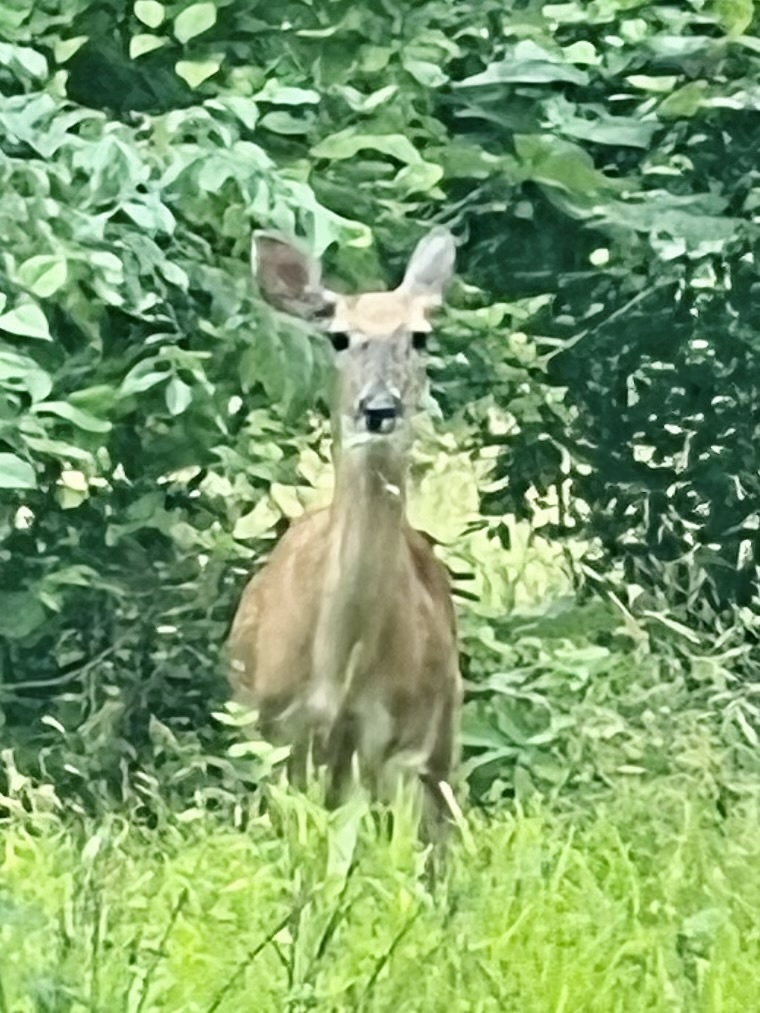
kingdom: Animalia
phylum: Chordata
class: Mammalia
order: Artiodactyla
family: Cervidae
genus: Odocoileus
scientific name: Odocoileus virginianus
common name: White-tailed deer
